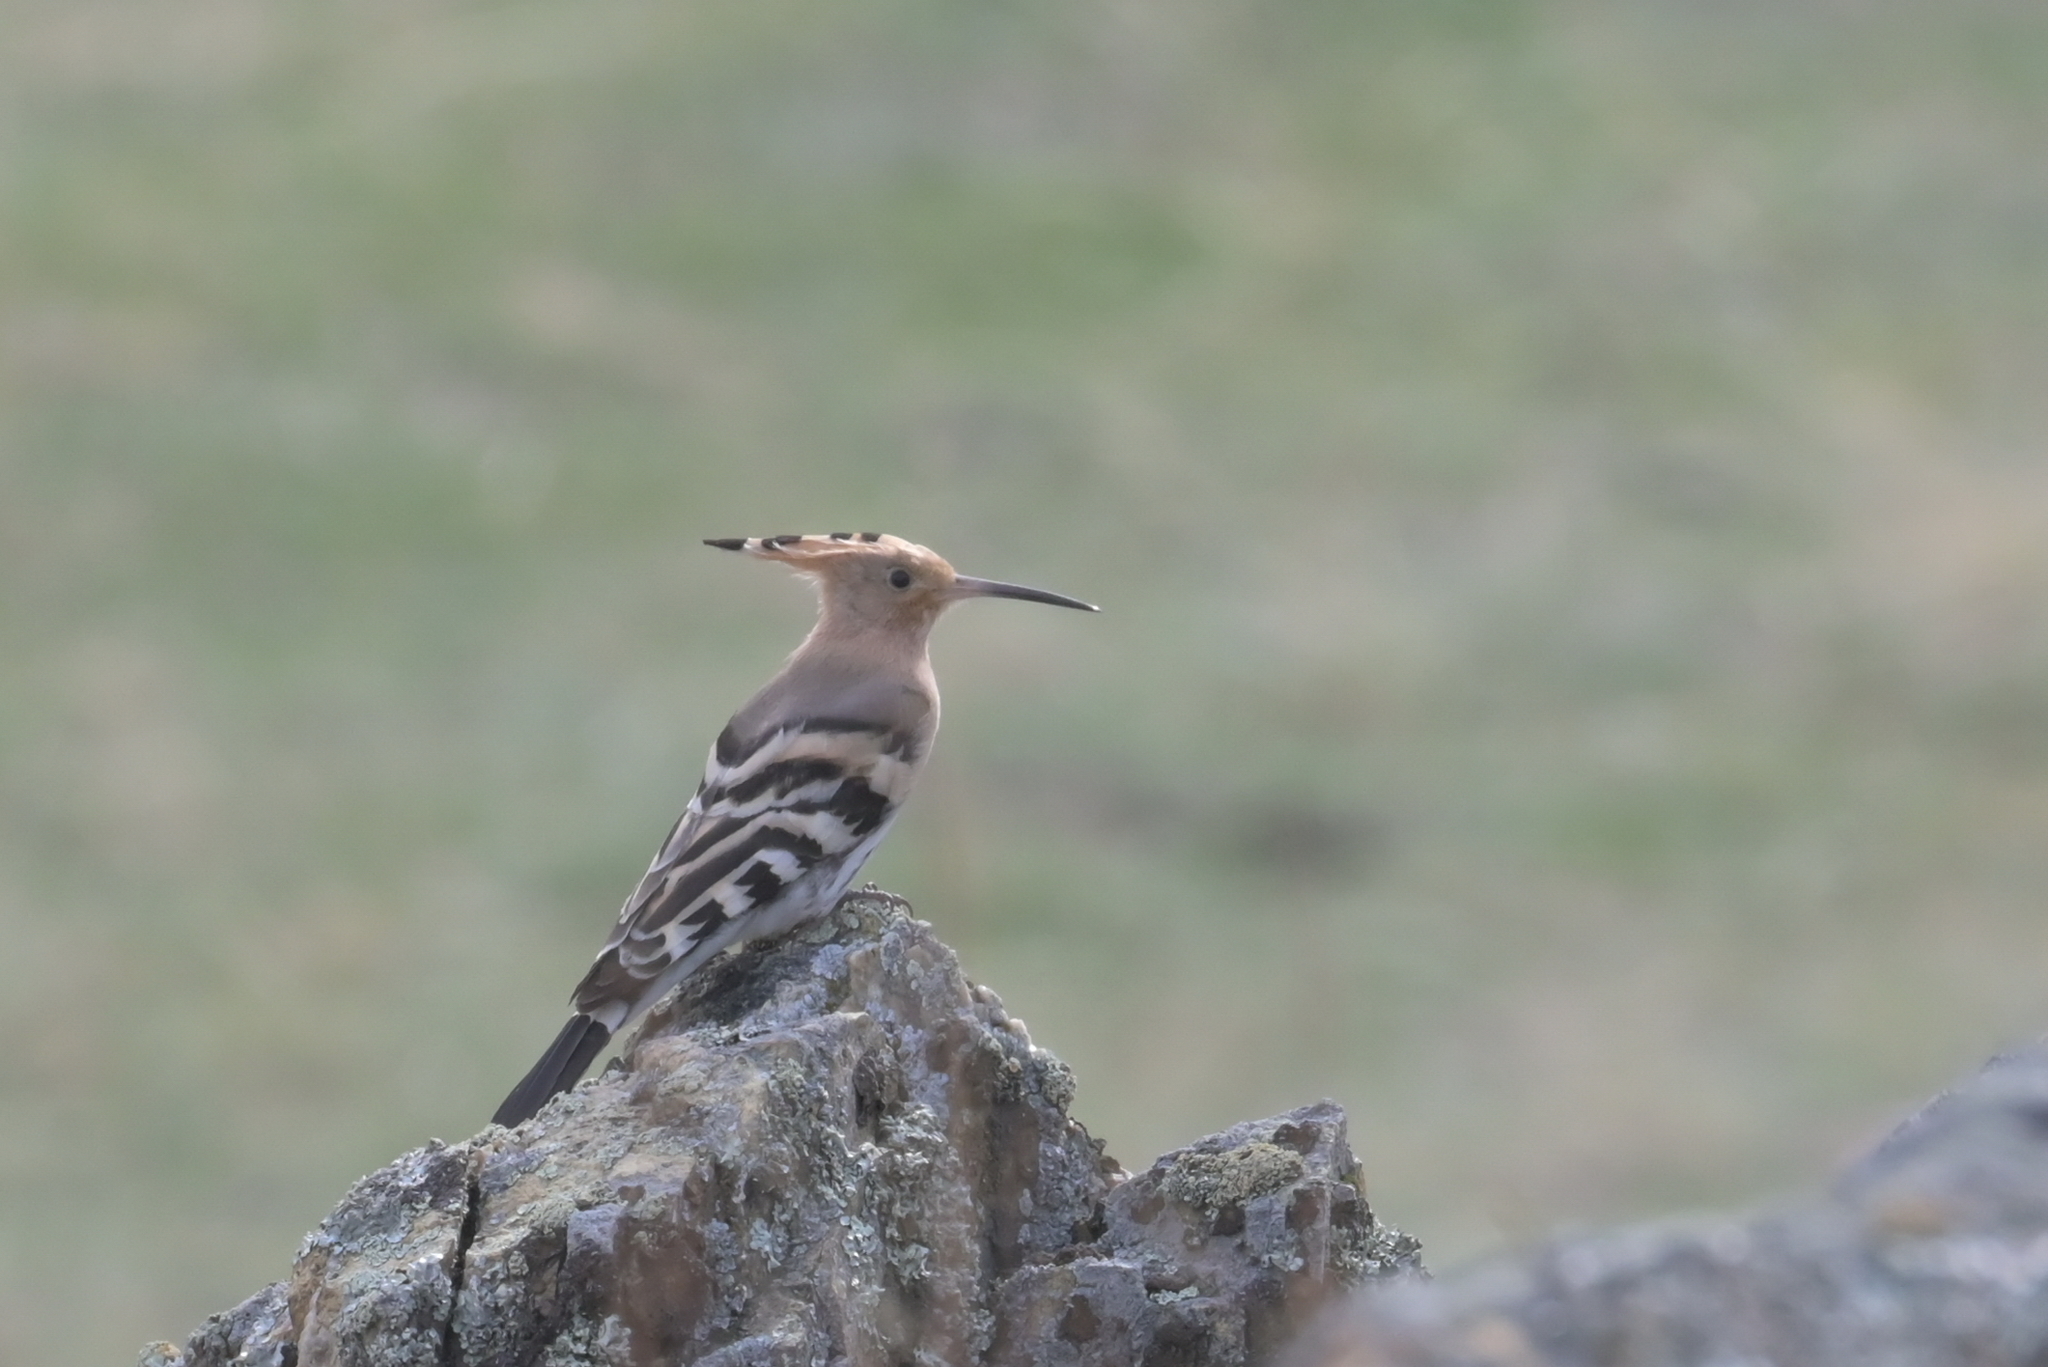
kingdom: Animalia
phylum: Chordata
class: Aves
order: Bucerotiformes
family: Upupidae
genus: Upupa
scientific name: Upupa epops
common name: Eurasian hoopoe
